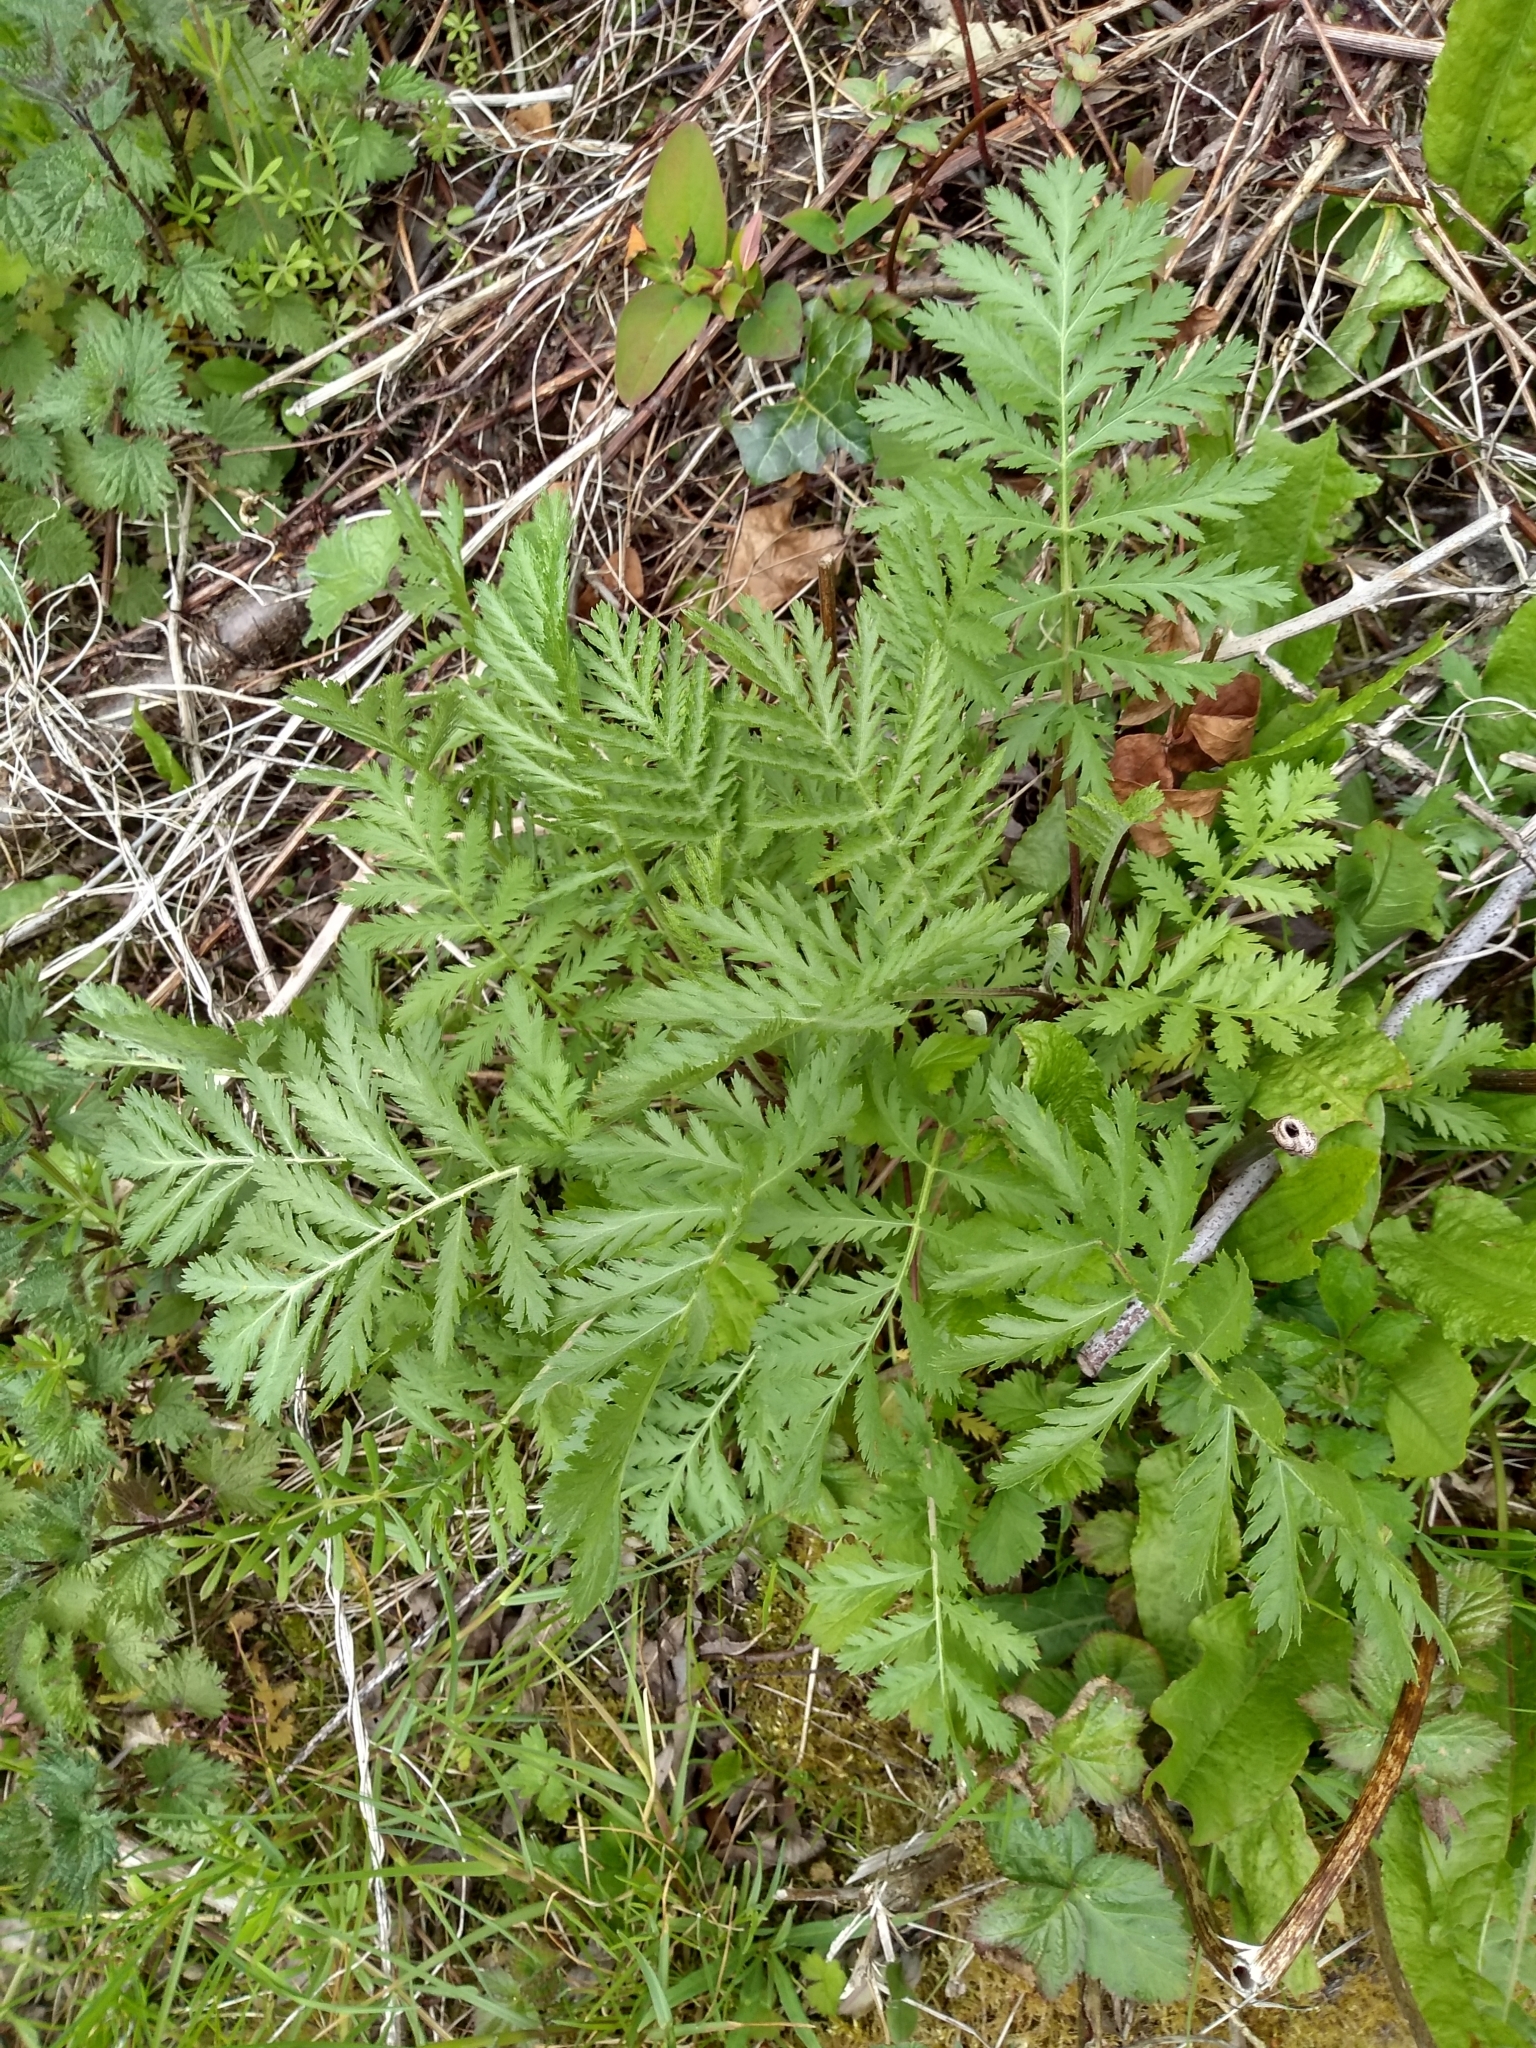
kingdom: Plantae
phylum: Tracheophyta
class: Magnoliopsida
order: Asterales
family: Asteraceae
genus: Tanacetum
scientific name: Tanacetum vulgare
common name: Common tansy
